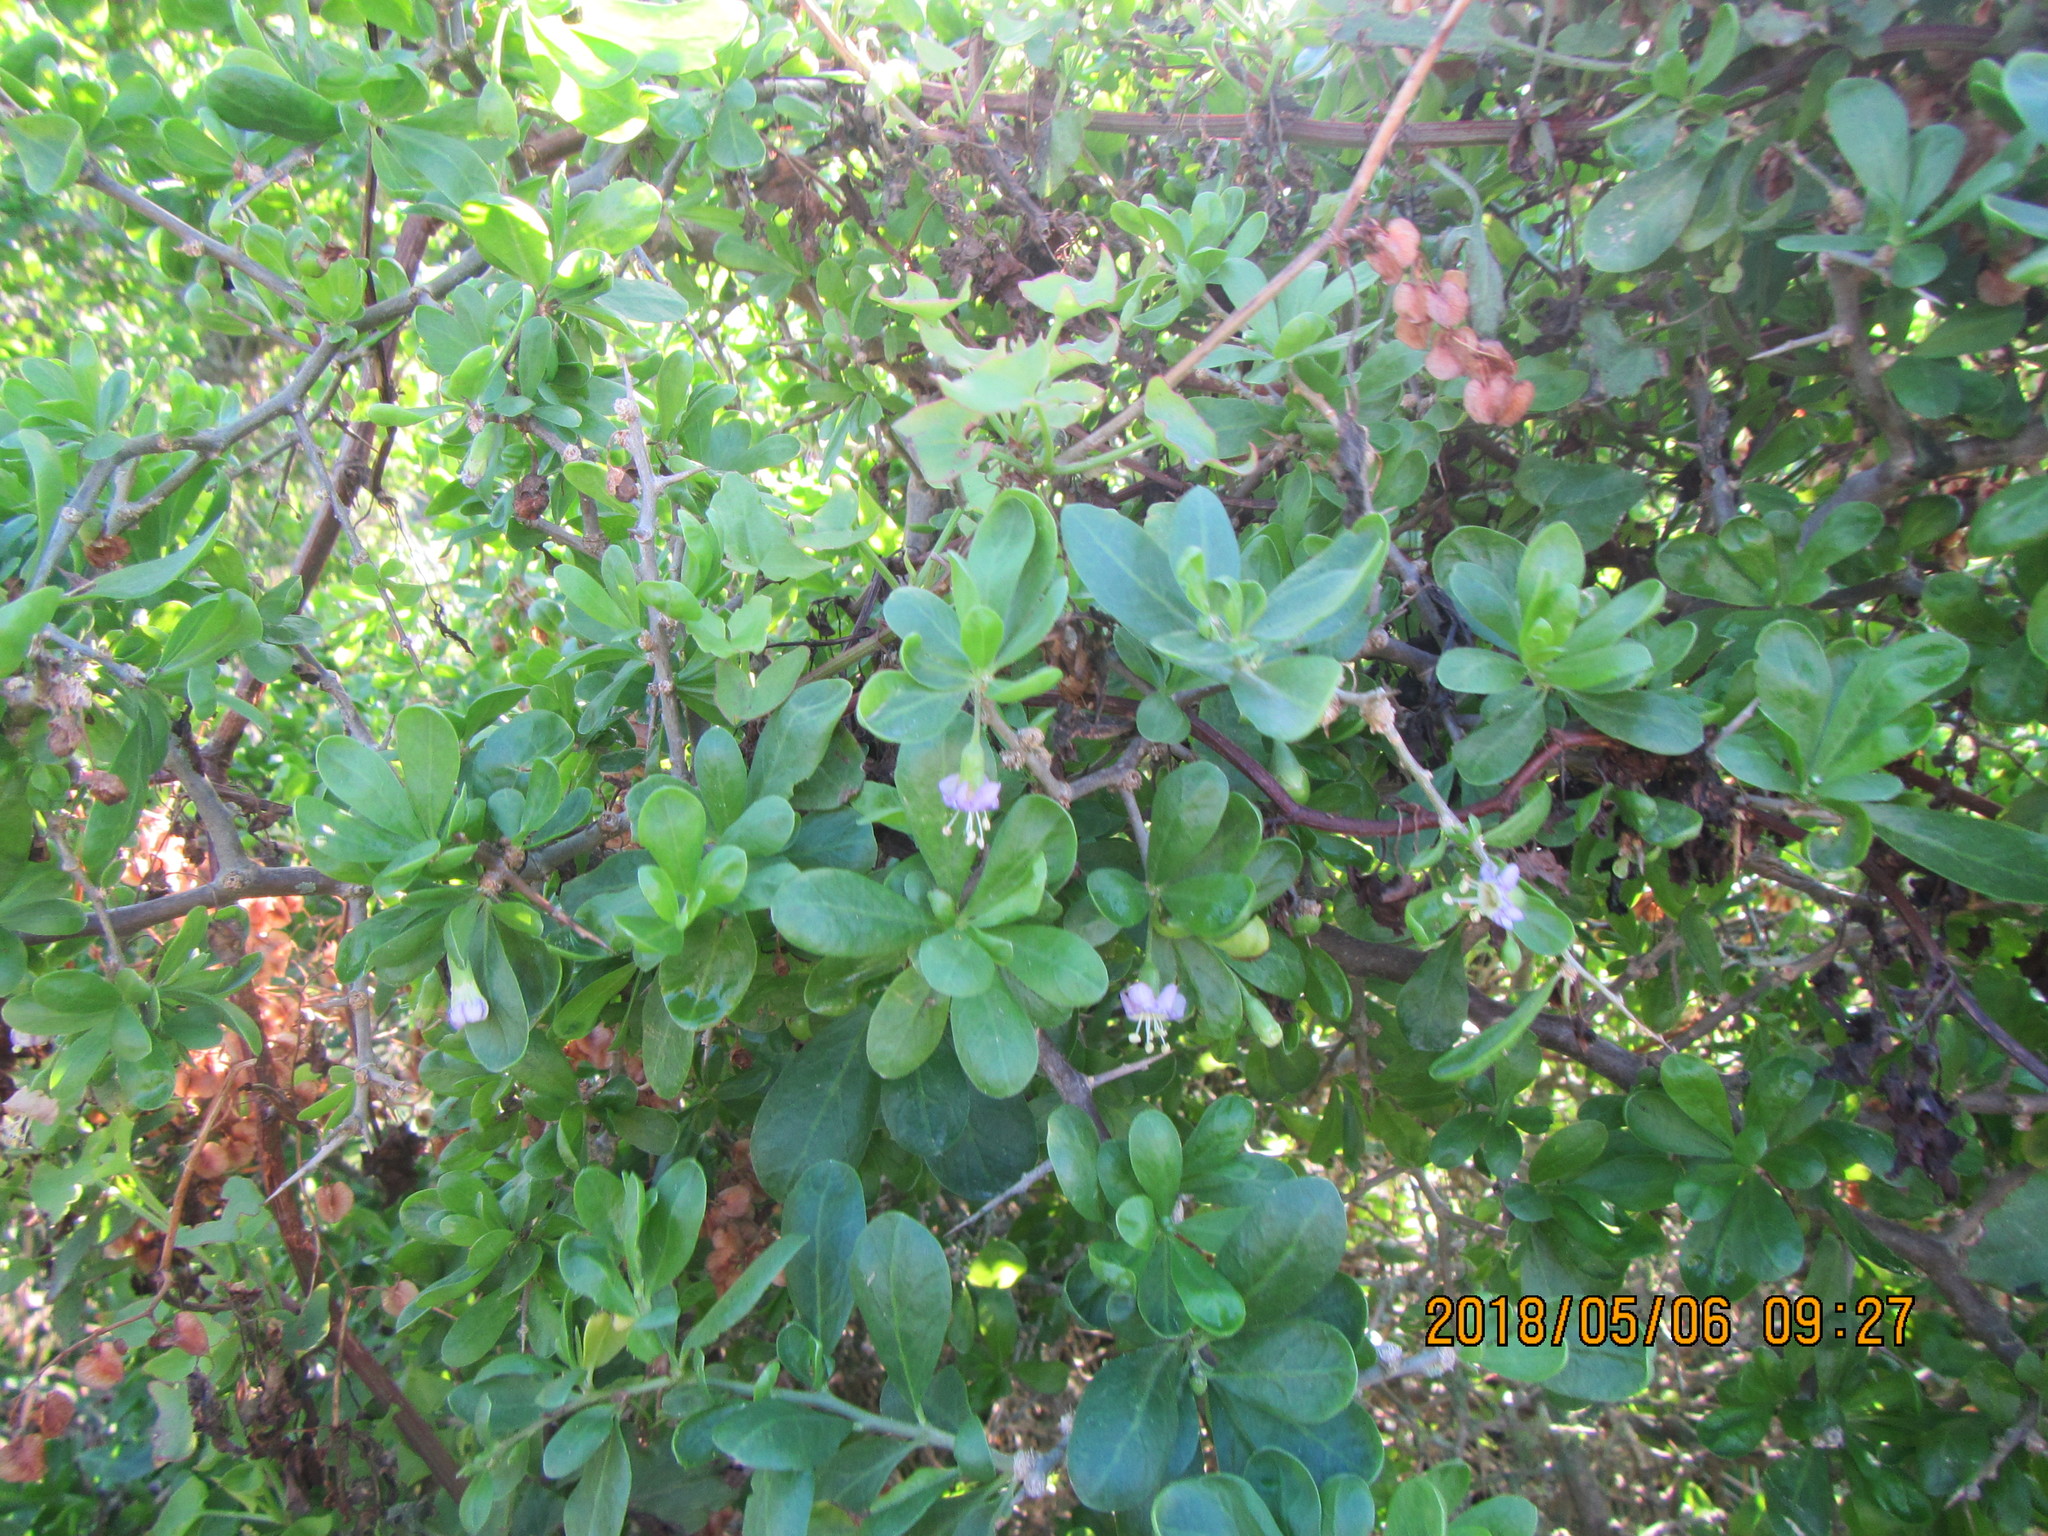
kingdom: Plantae
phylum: Tracheophyta
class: Magnoliopsida
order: Solanales
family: Solanaceae
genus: Lycium
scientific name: Lycium ferocissimum
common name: African boxthorn
